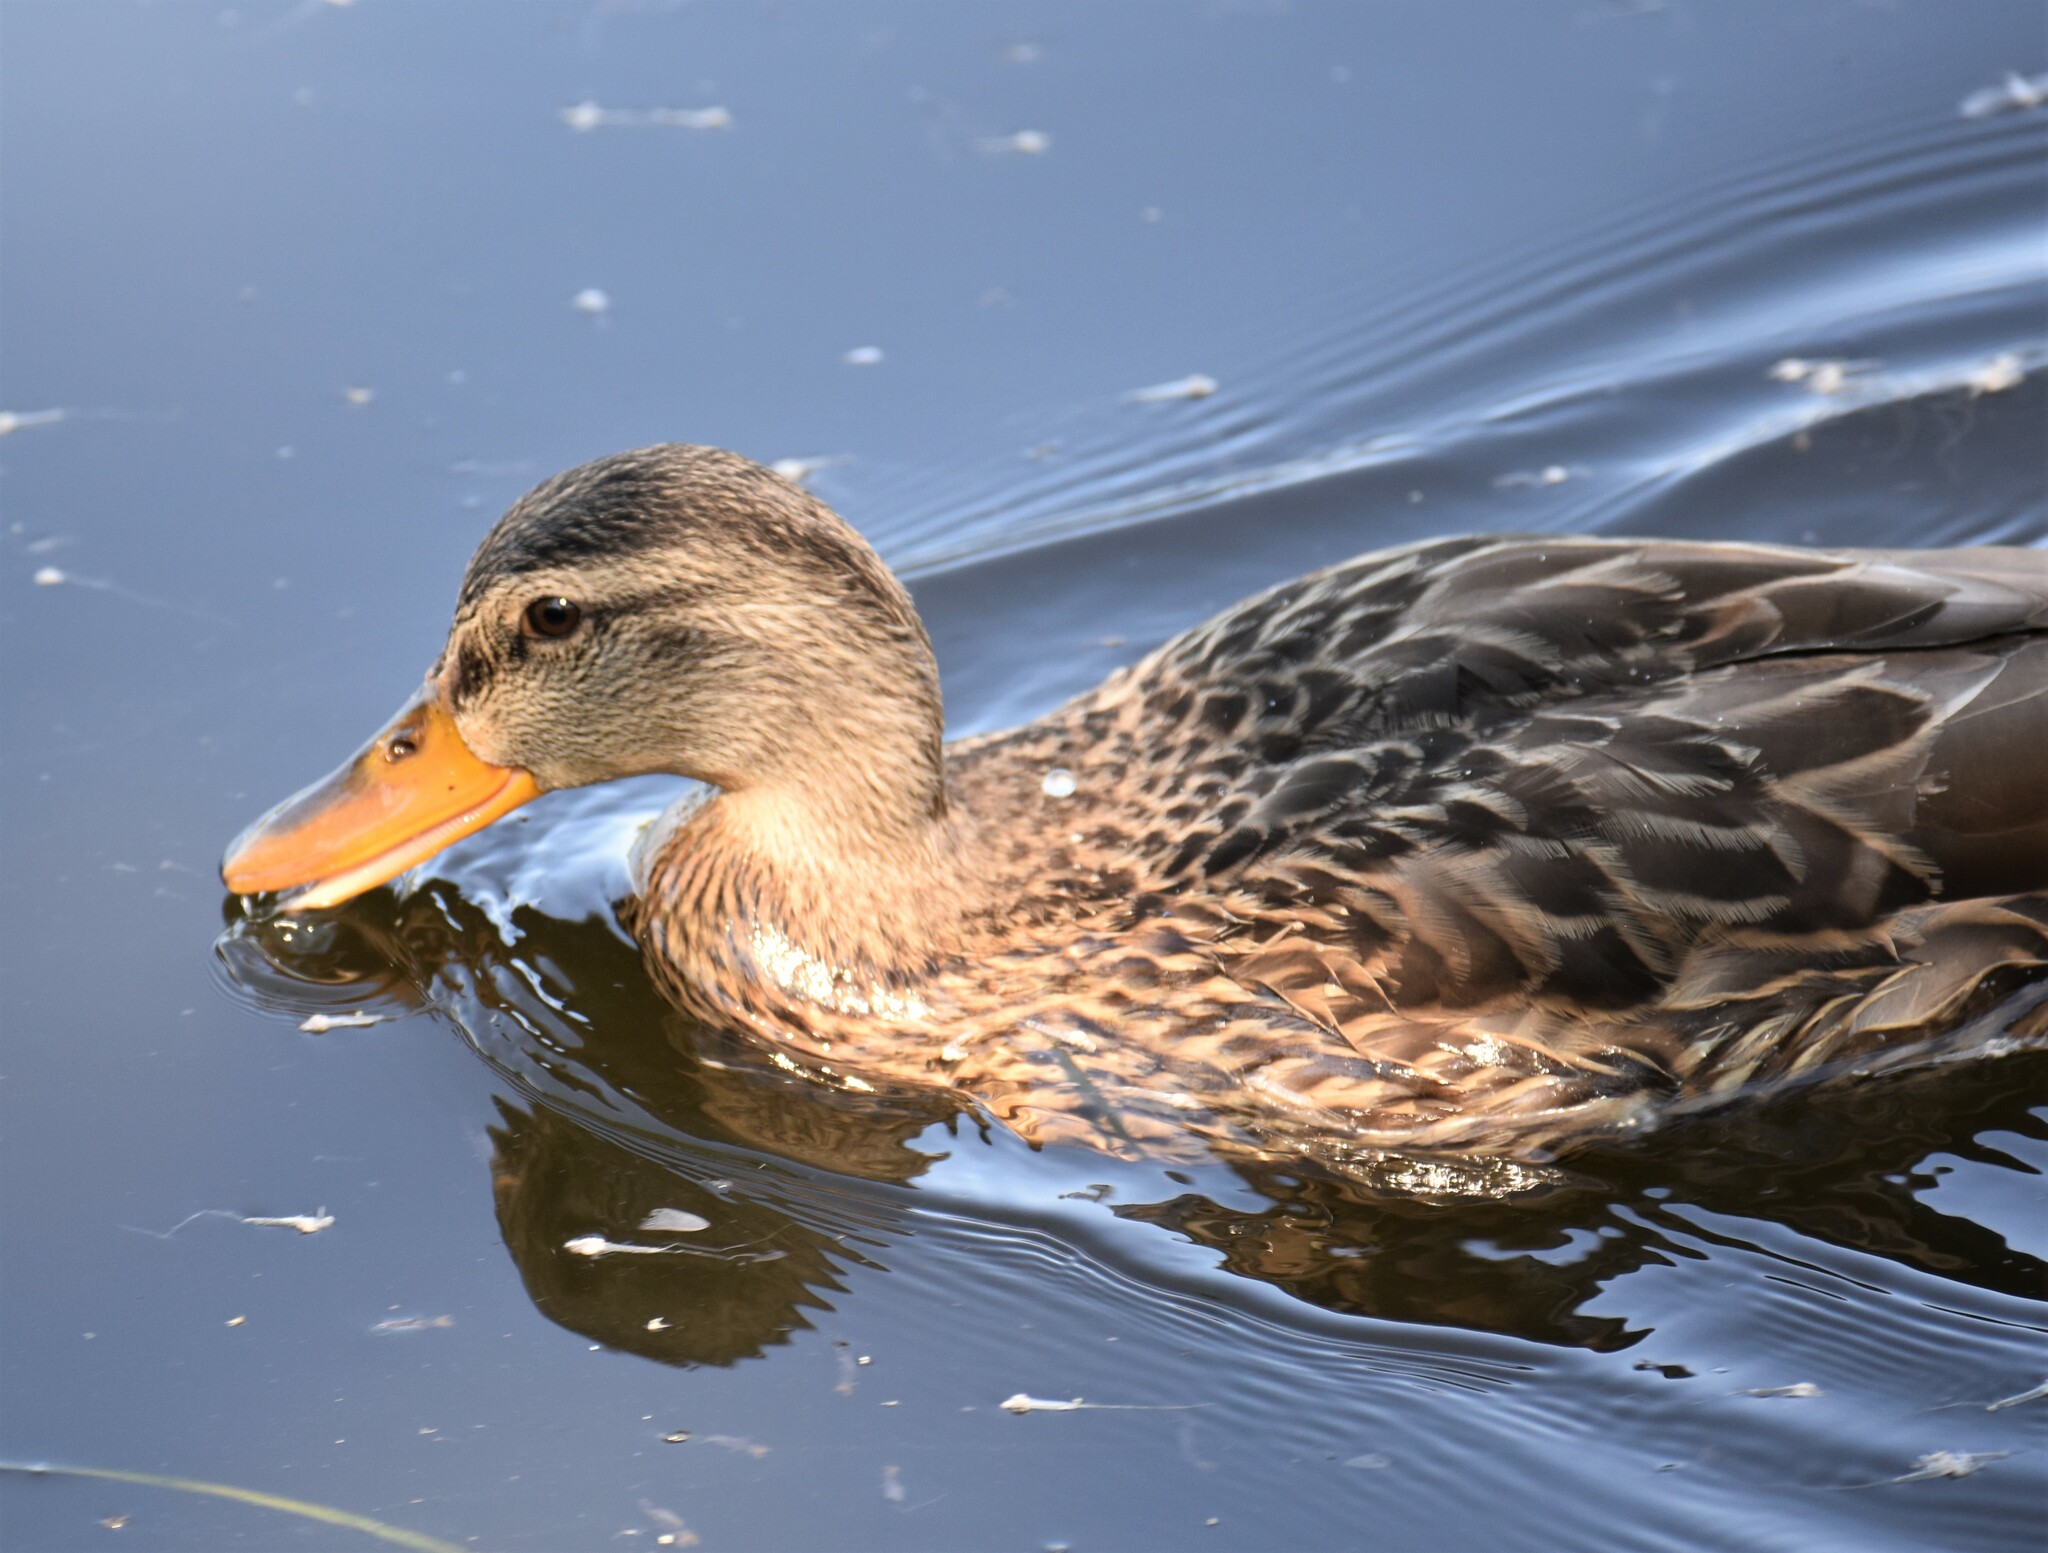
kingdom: Animalia
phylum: Chordata
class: Aves
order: Anseriformes
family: Anatidae
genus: Anas
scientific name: Anas platyrhynchos
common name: Mallard
